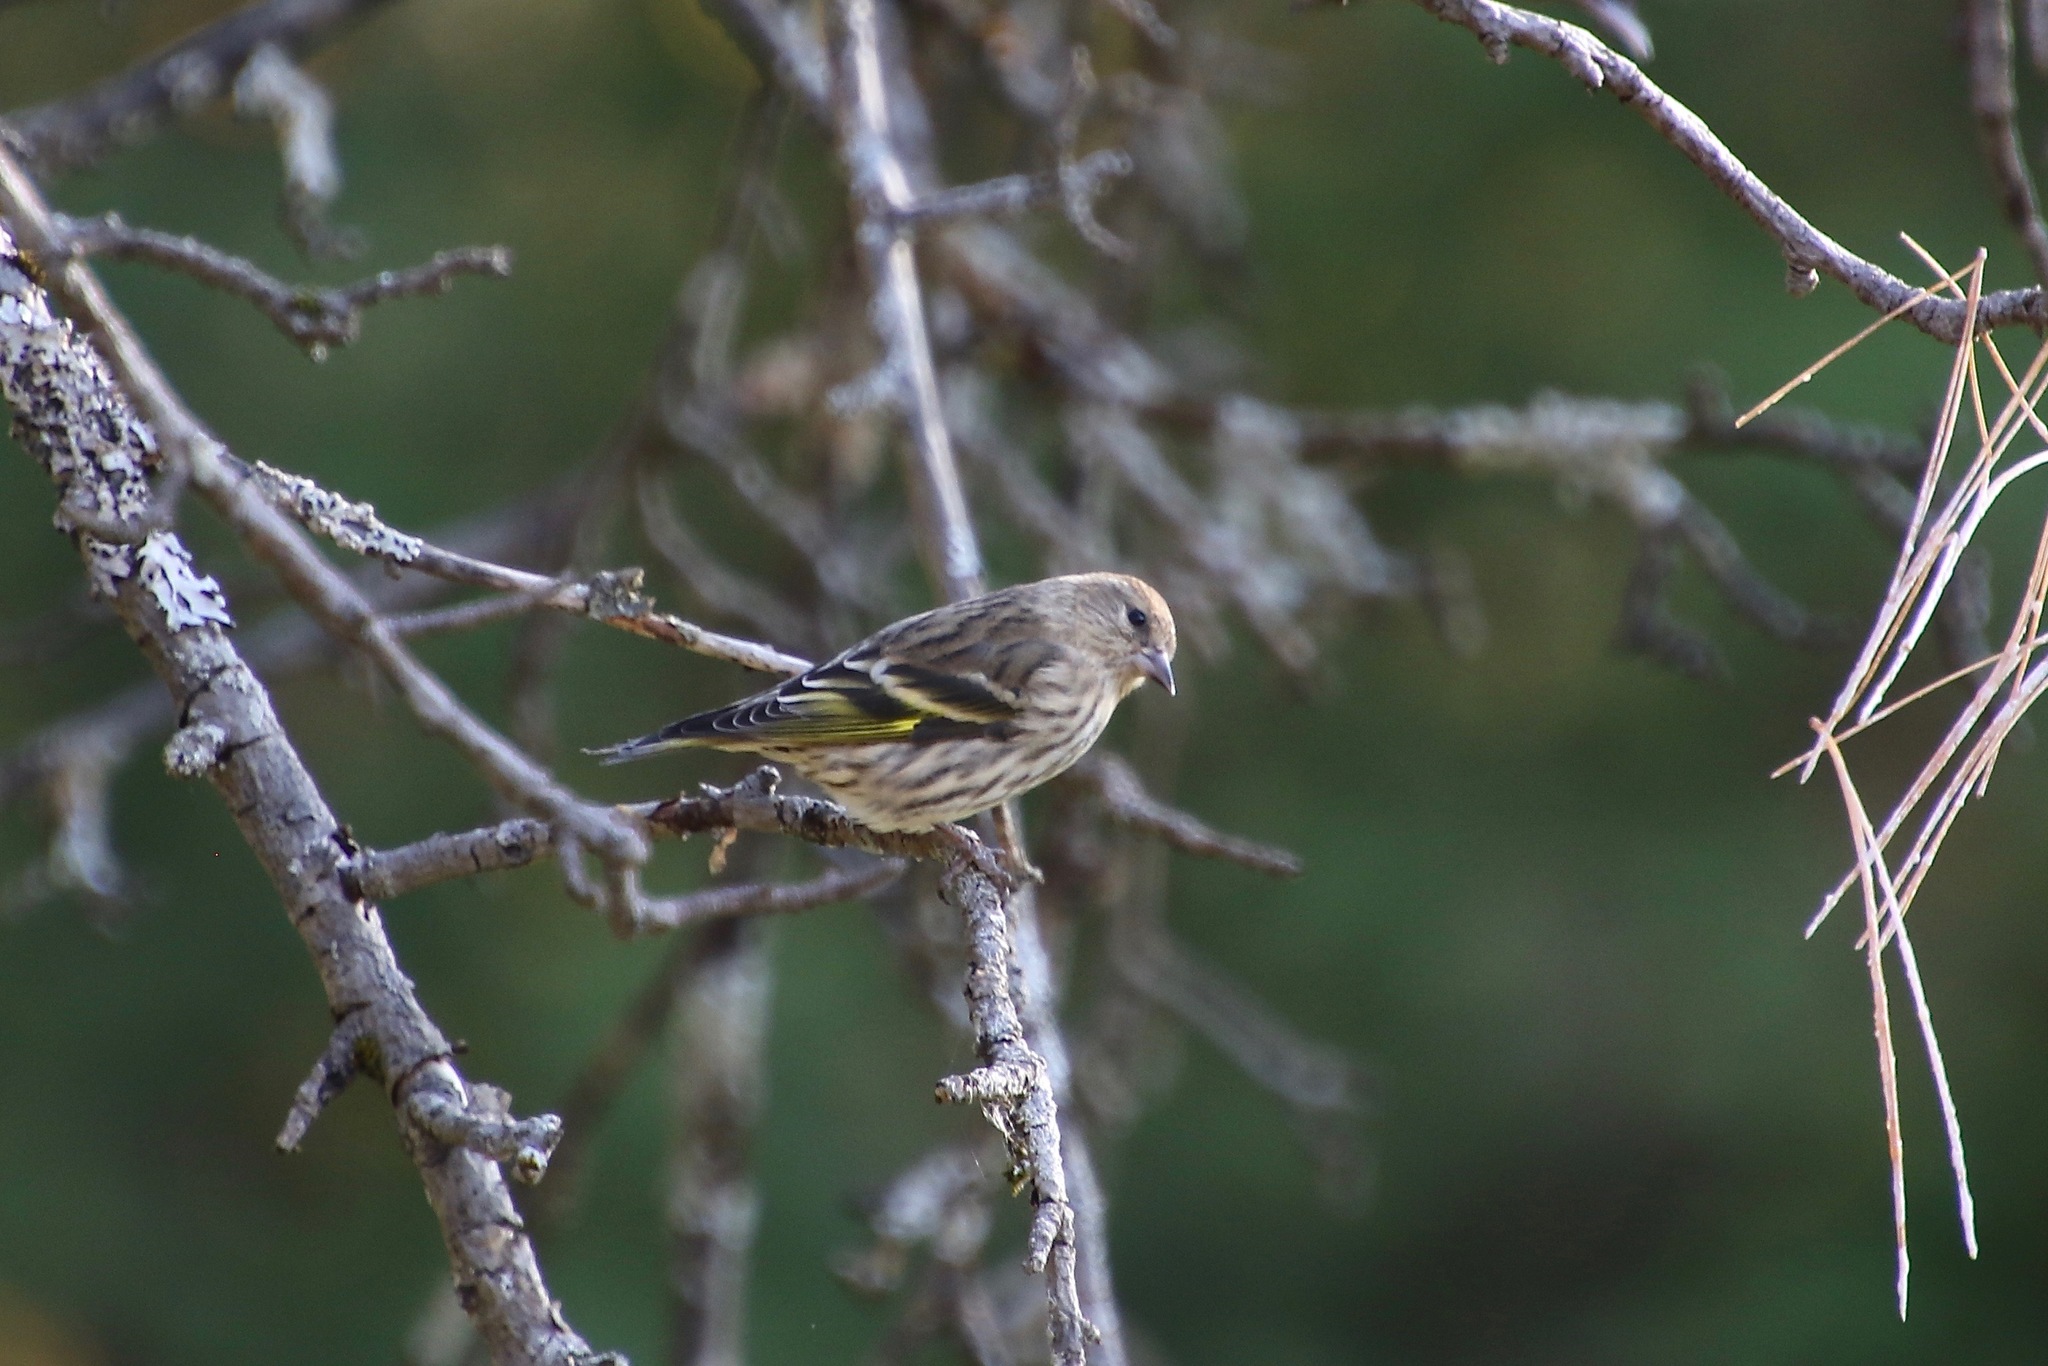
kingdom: Animalia
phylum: Chordata
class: Aves
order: Passeriformes
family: Fringillidae
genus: Spinus
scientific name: Spinus pinus
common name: Pine siskin
